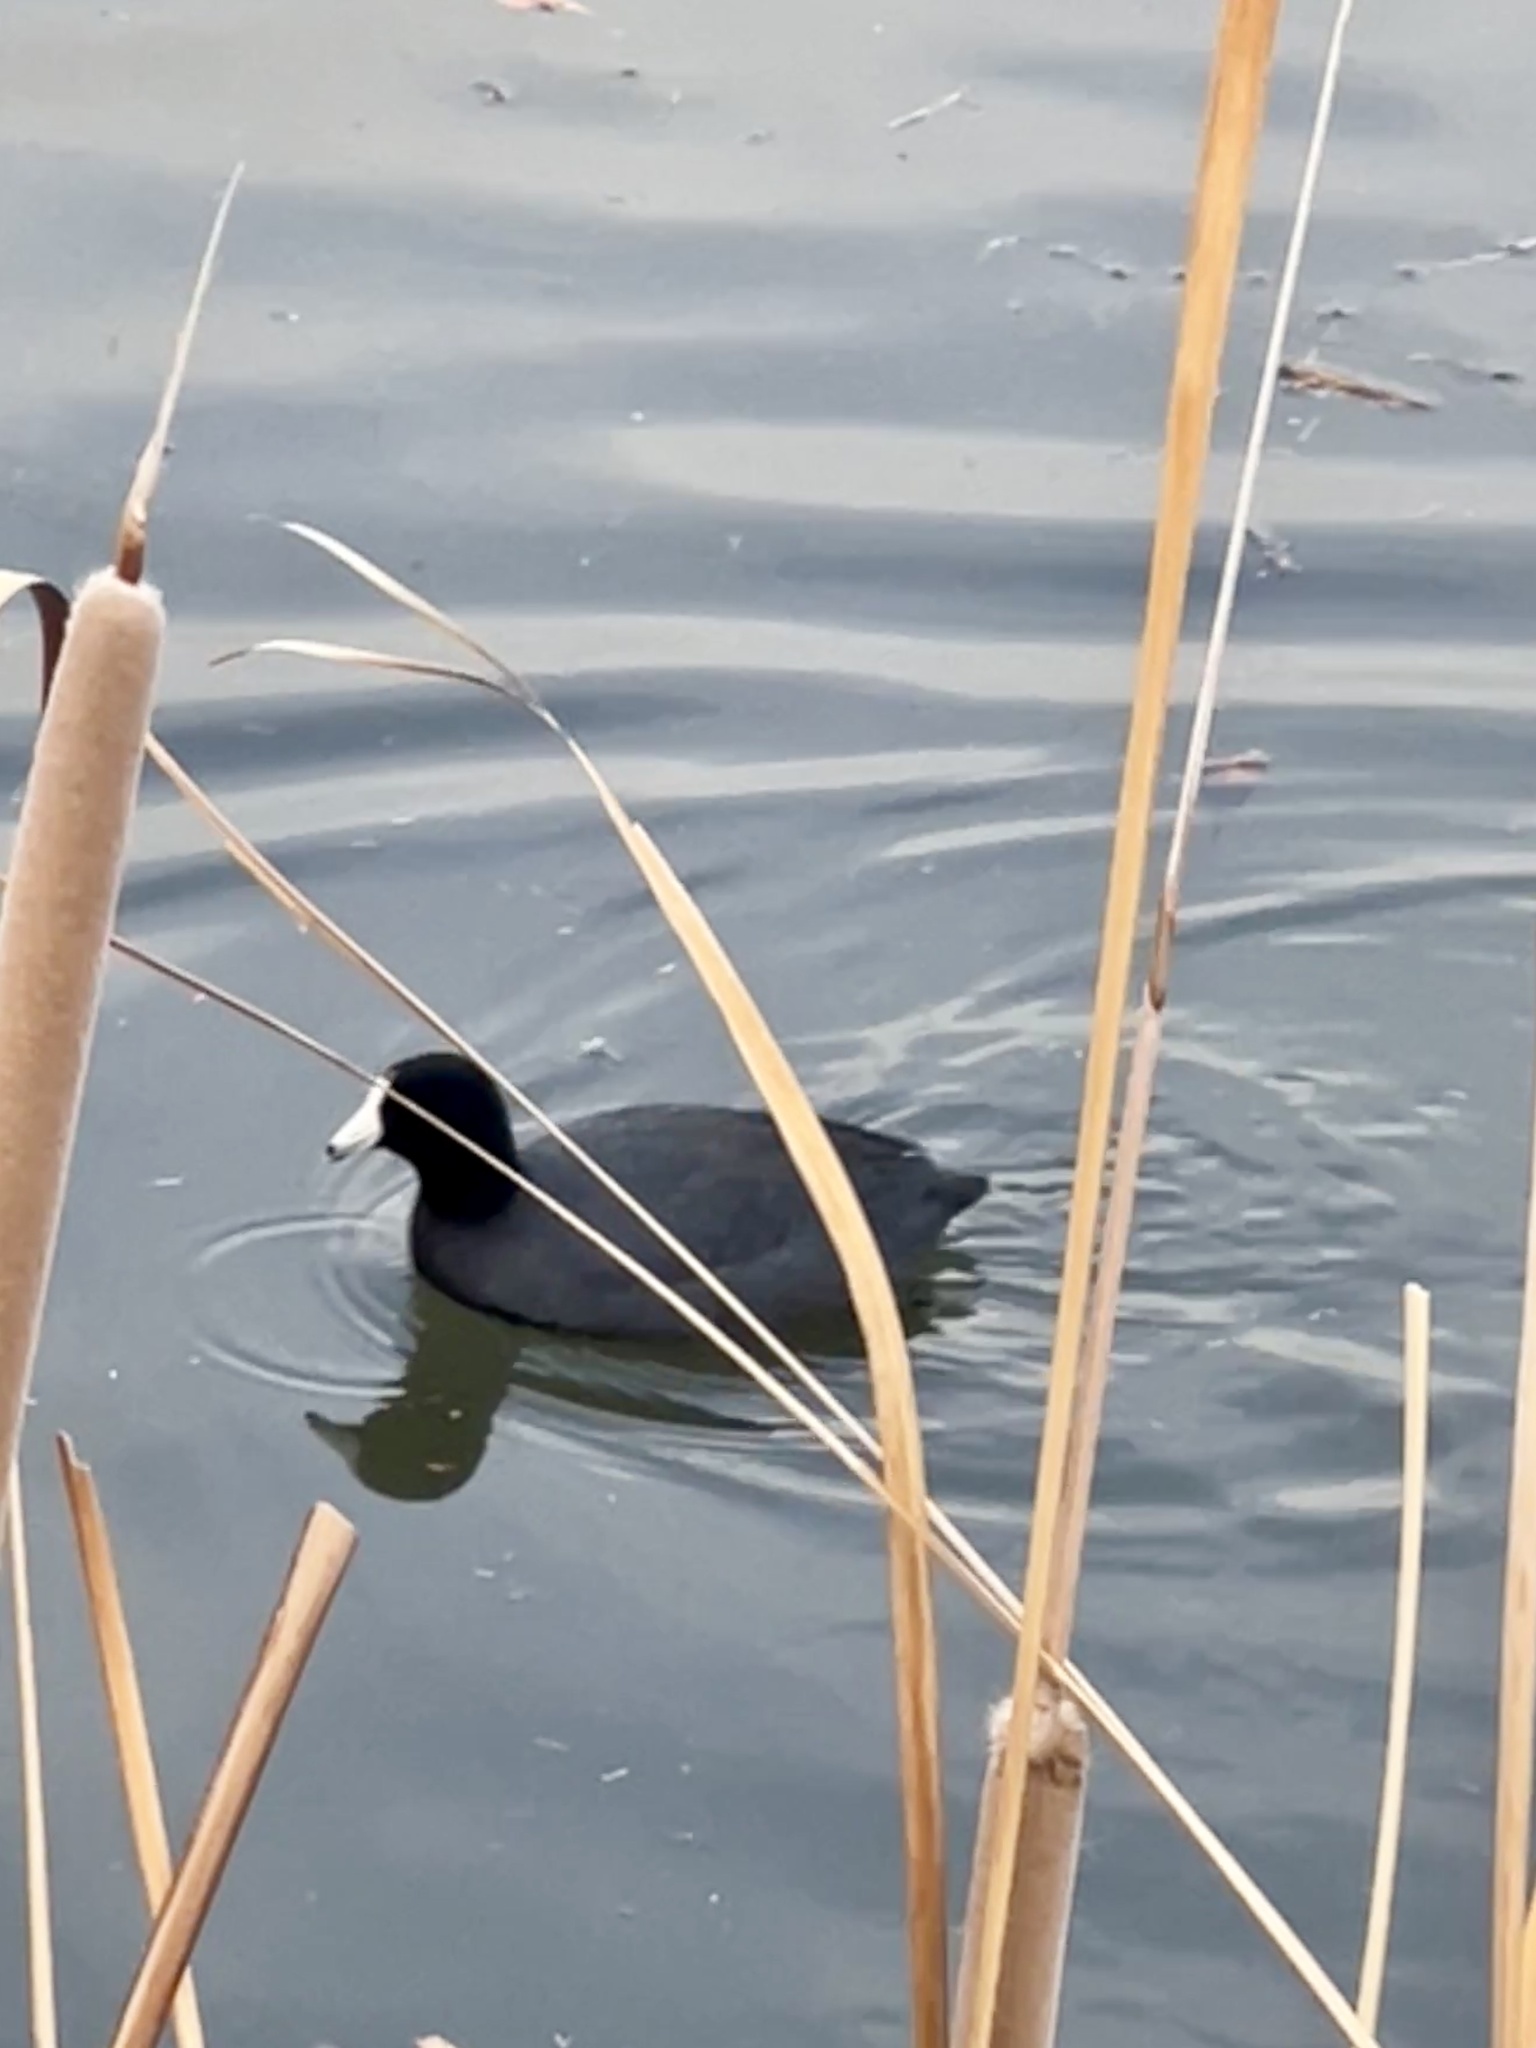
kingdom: Animalia
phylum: Chordata
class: Aves
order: Gruiformes
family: Rallidae
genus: Fulica
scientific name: Fulica americana
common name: American coot
